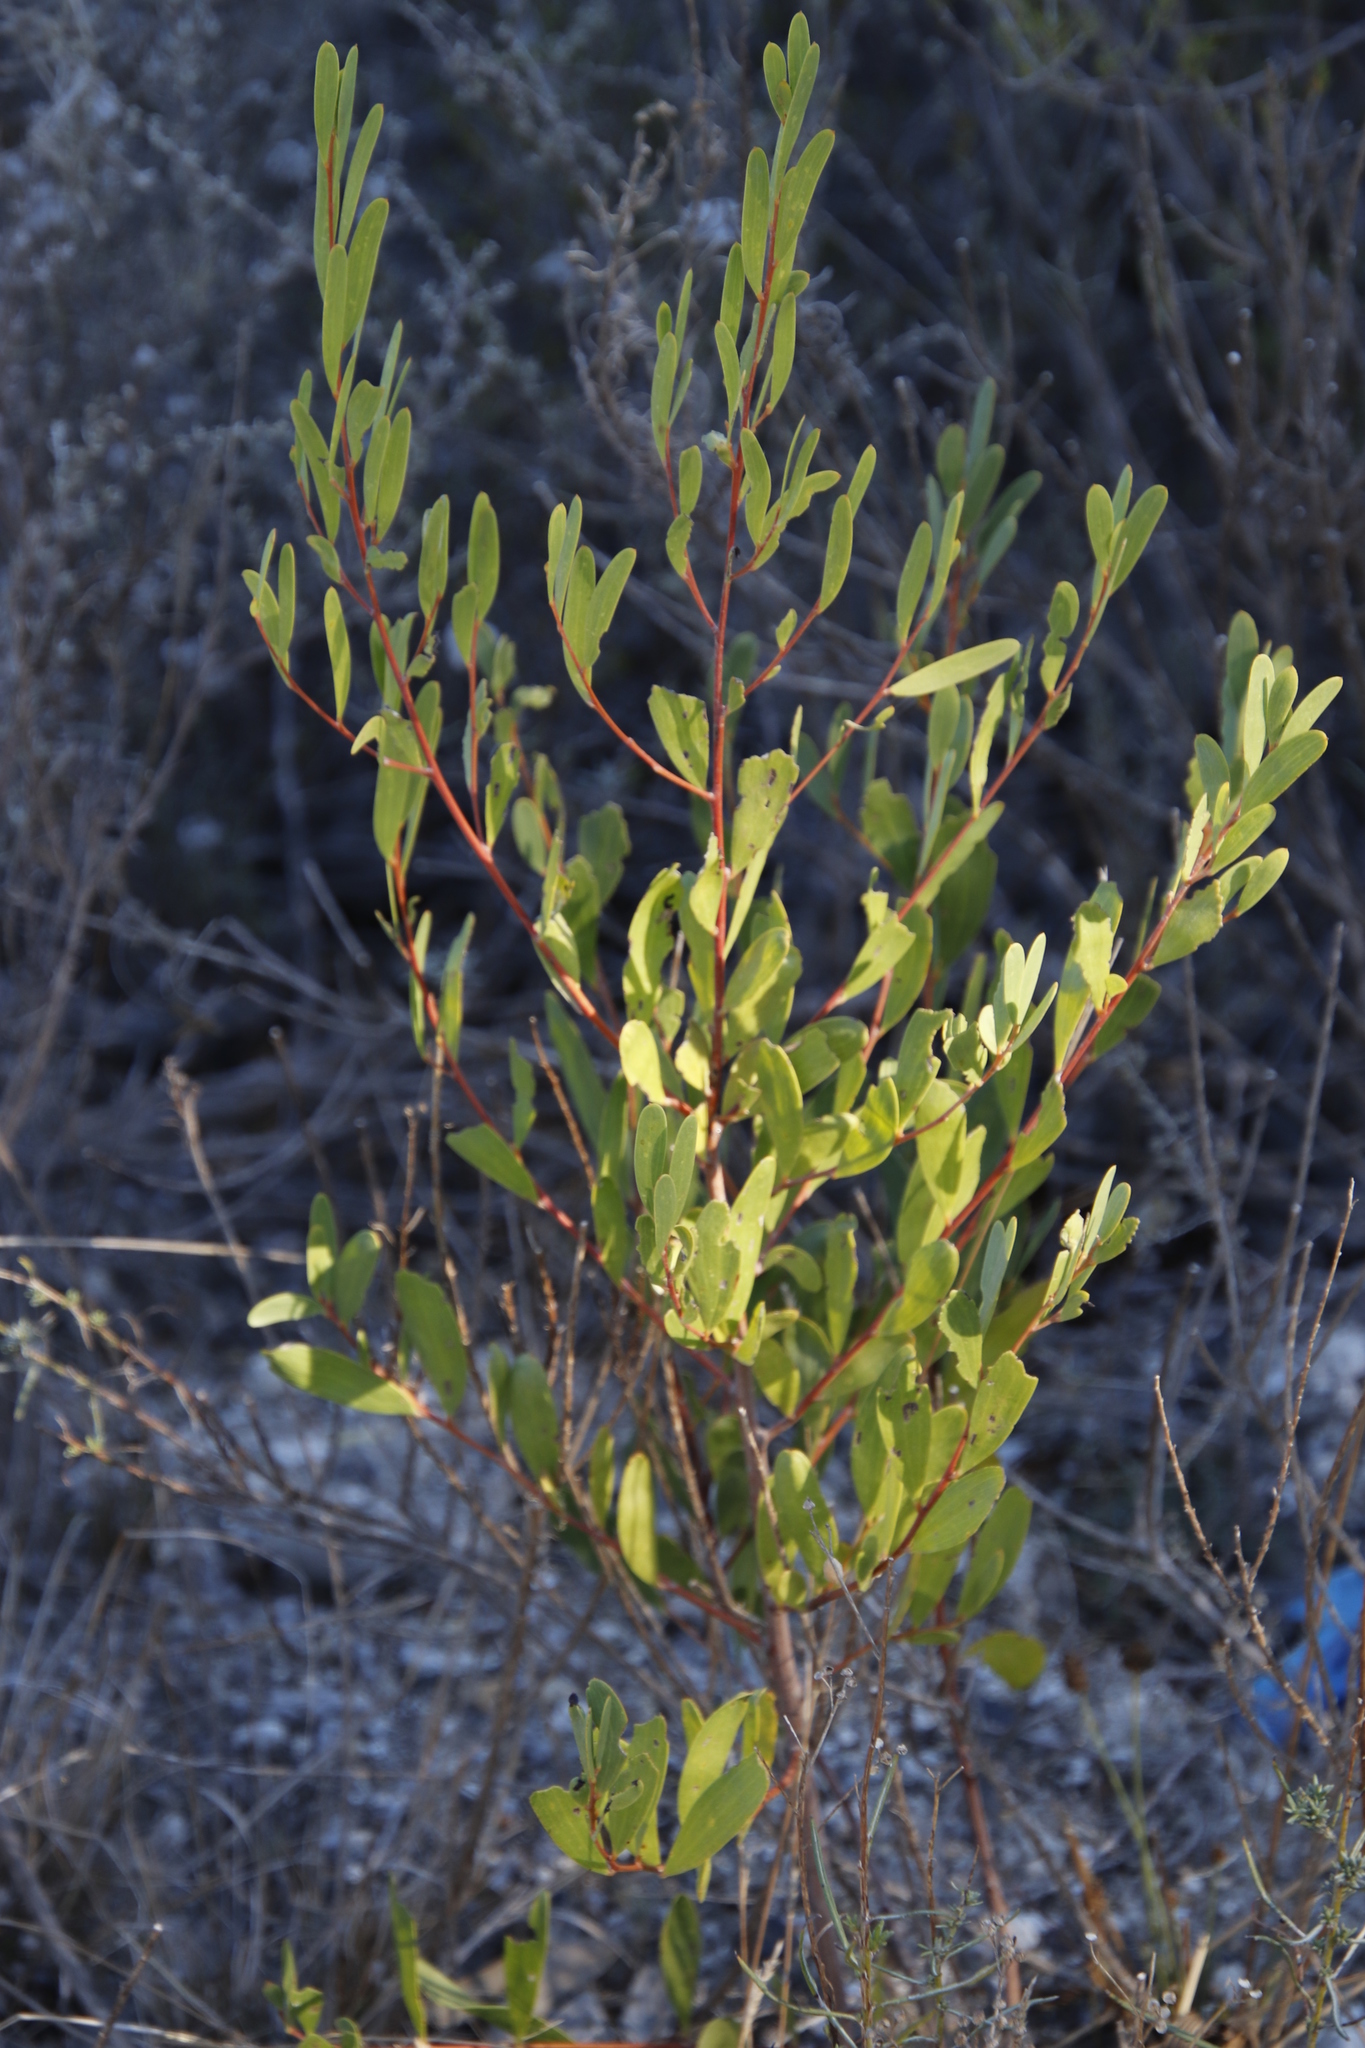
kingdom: Plantae
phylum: Tracheophyta
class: Magnoliopsida
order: Fabales
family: Fabaceae
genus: Acacia
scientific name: Acacia cyclops
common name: Coastal wattle
